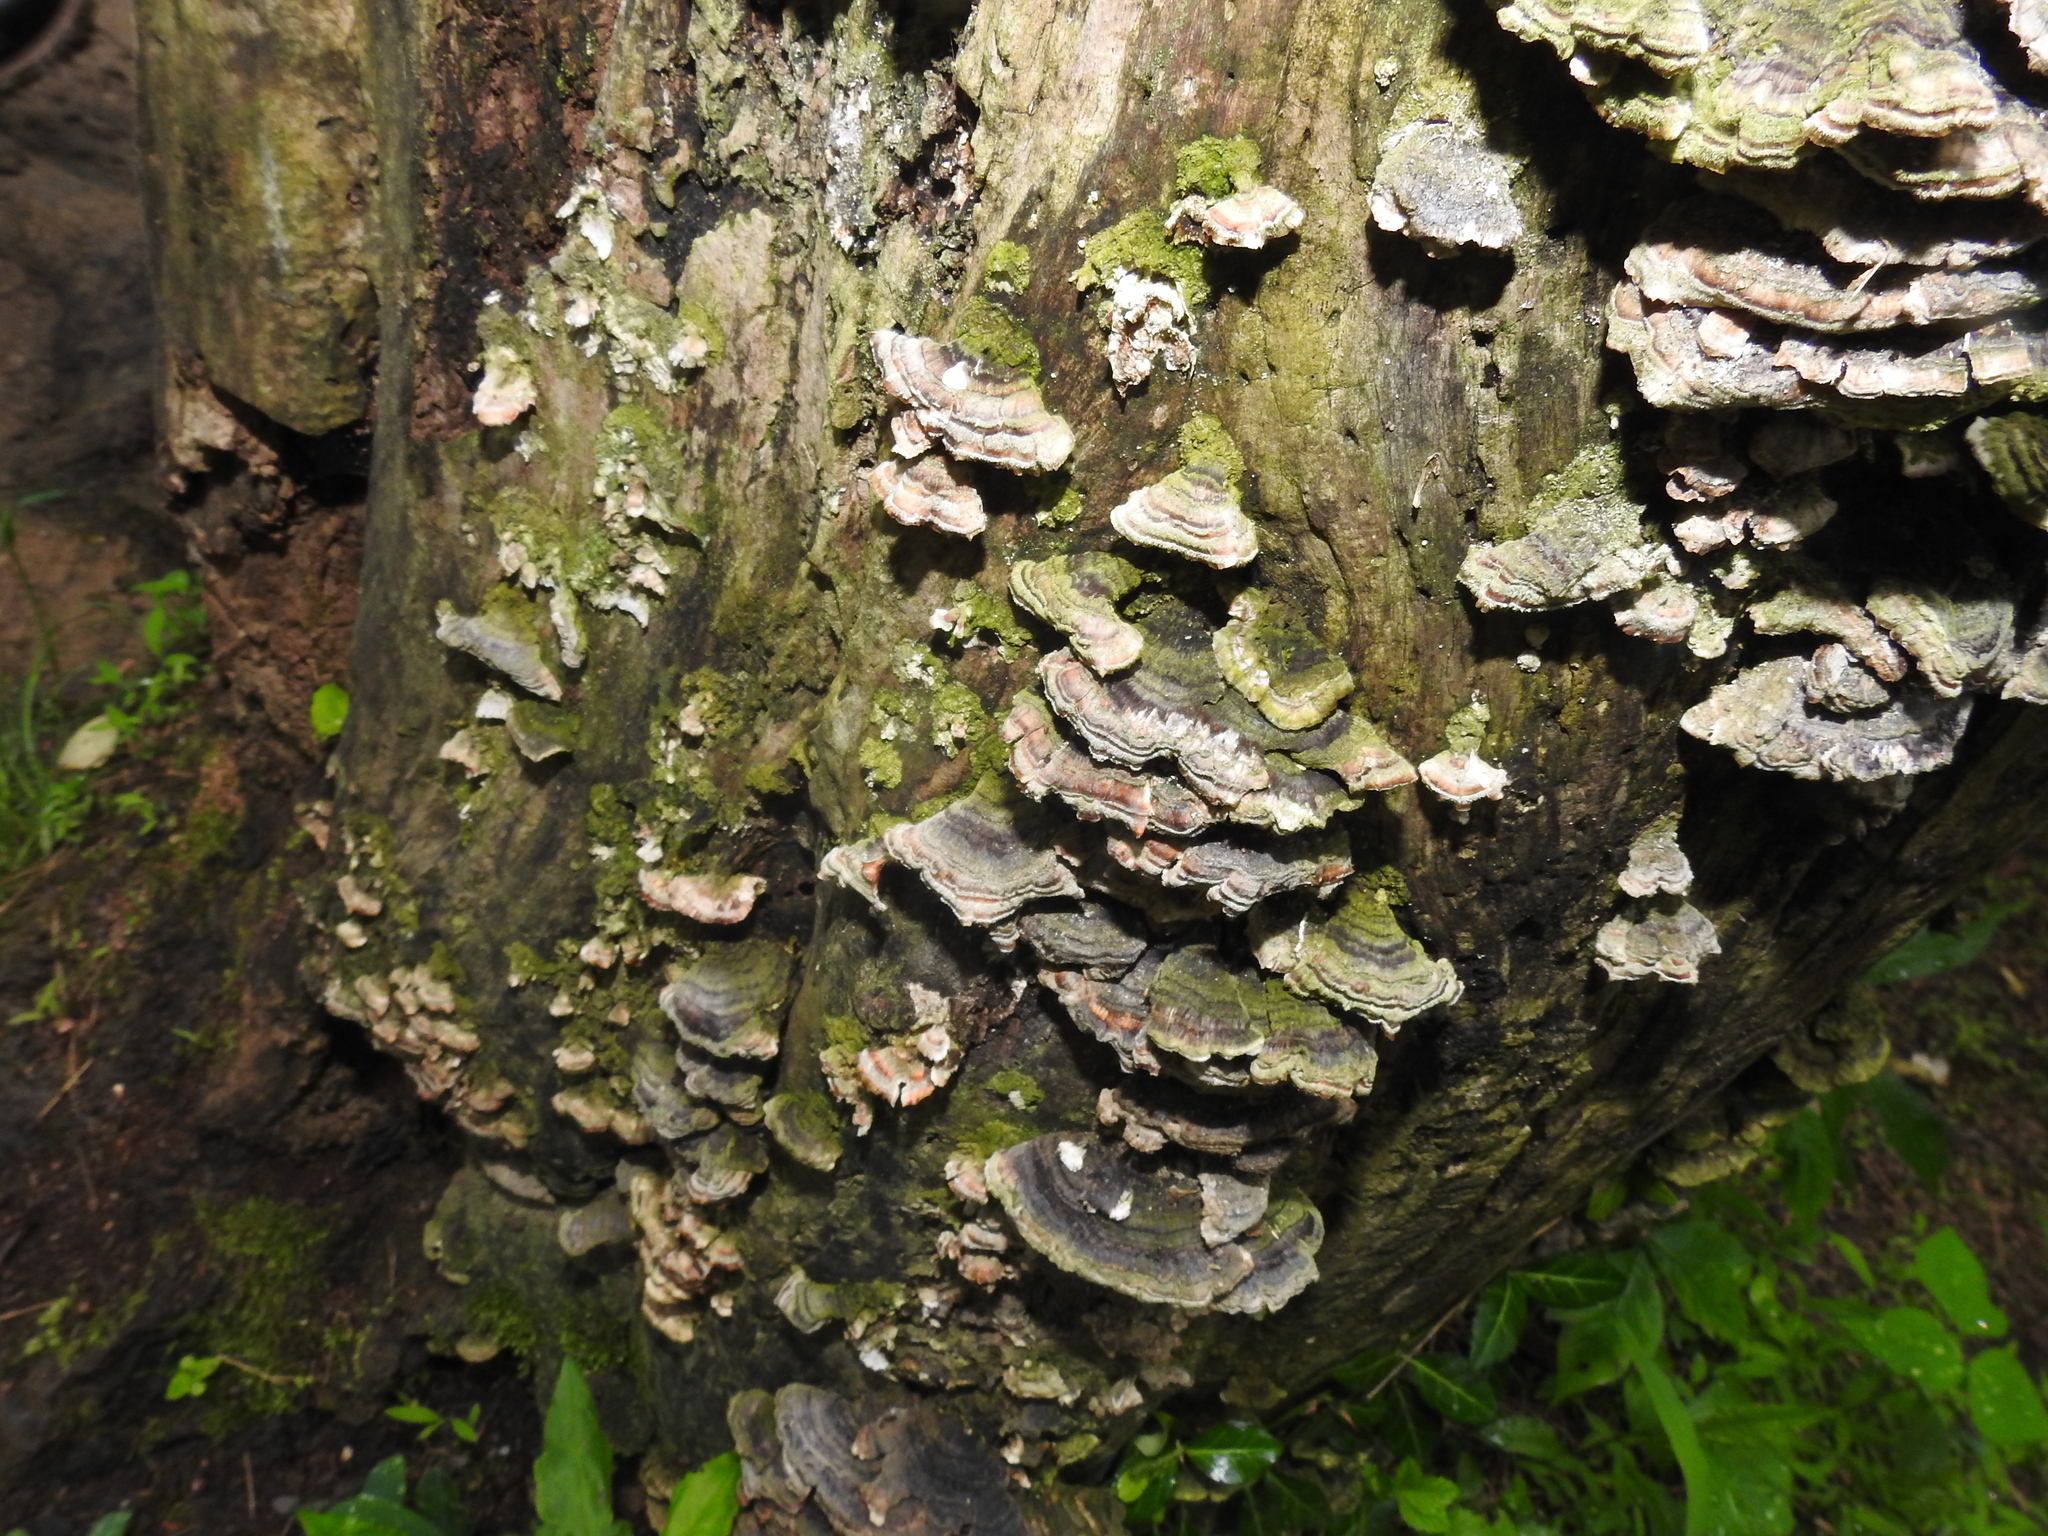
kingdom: Fungi
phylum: Basidiomycota
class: Agaricomycetes
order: Polyporales
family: Polyporaceae
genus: Trametes
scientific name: Trametes versicolor
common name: Turkeytail
